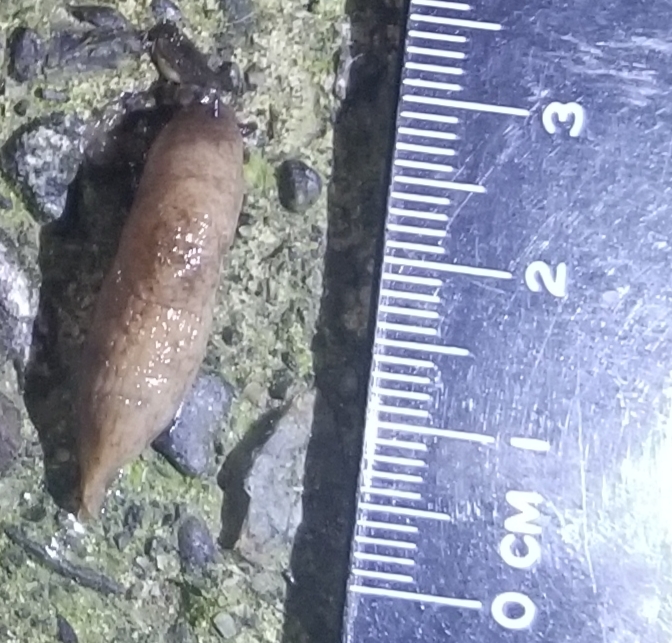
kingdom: Animalia
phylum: Mollusca
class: Gastropoda
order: Stylommatophora
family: Agriolimacidae
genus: Deroceras
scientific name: Deroceras reticulatum
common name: Gray field slug
